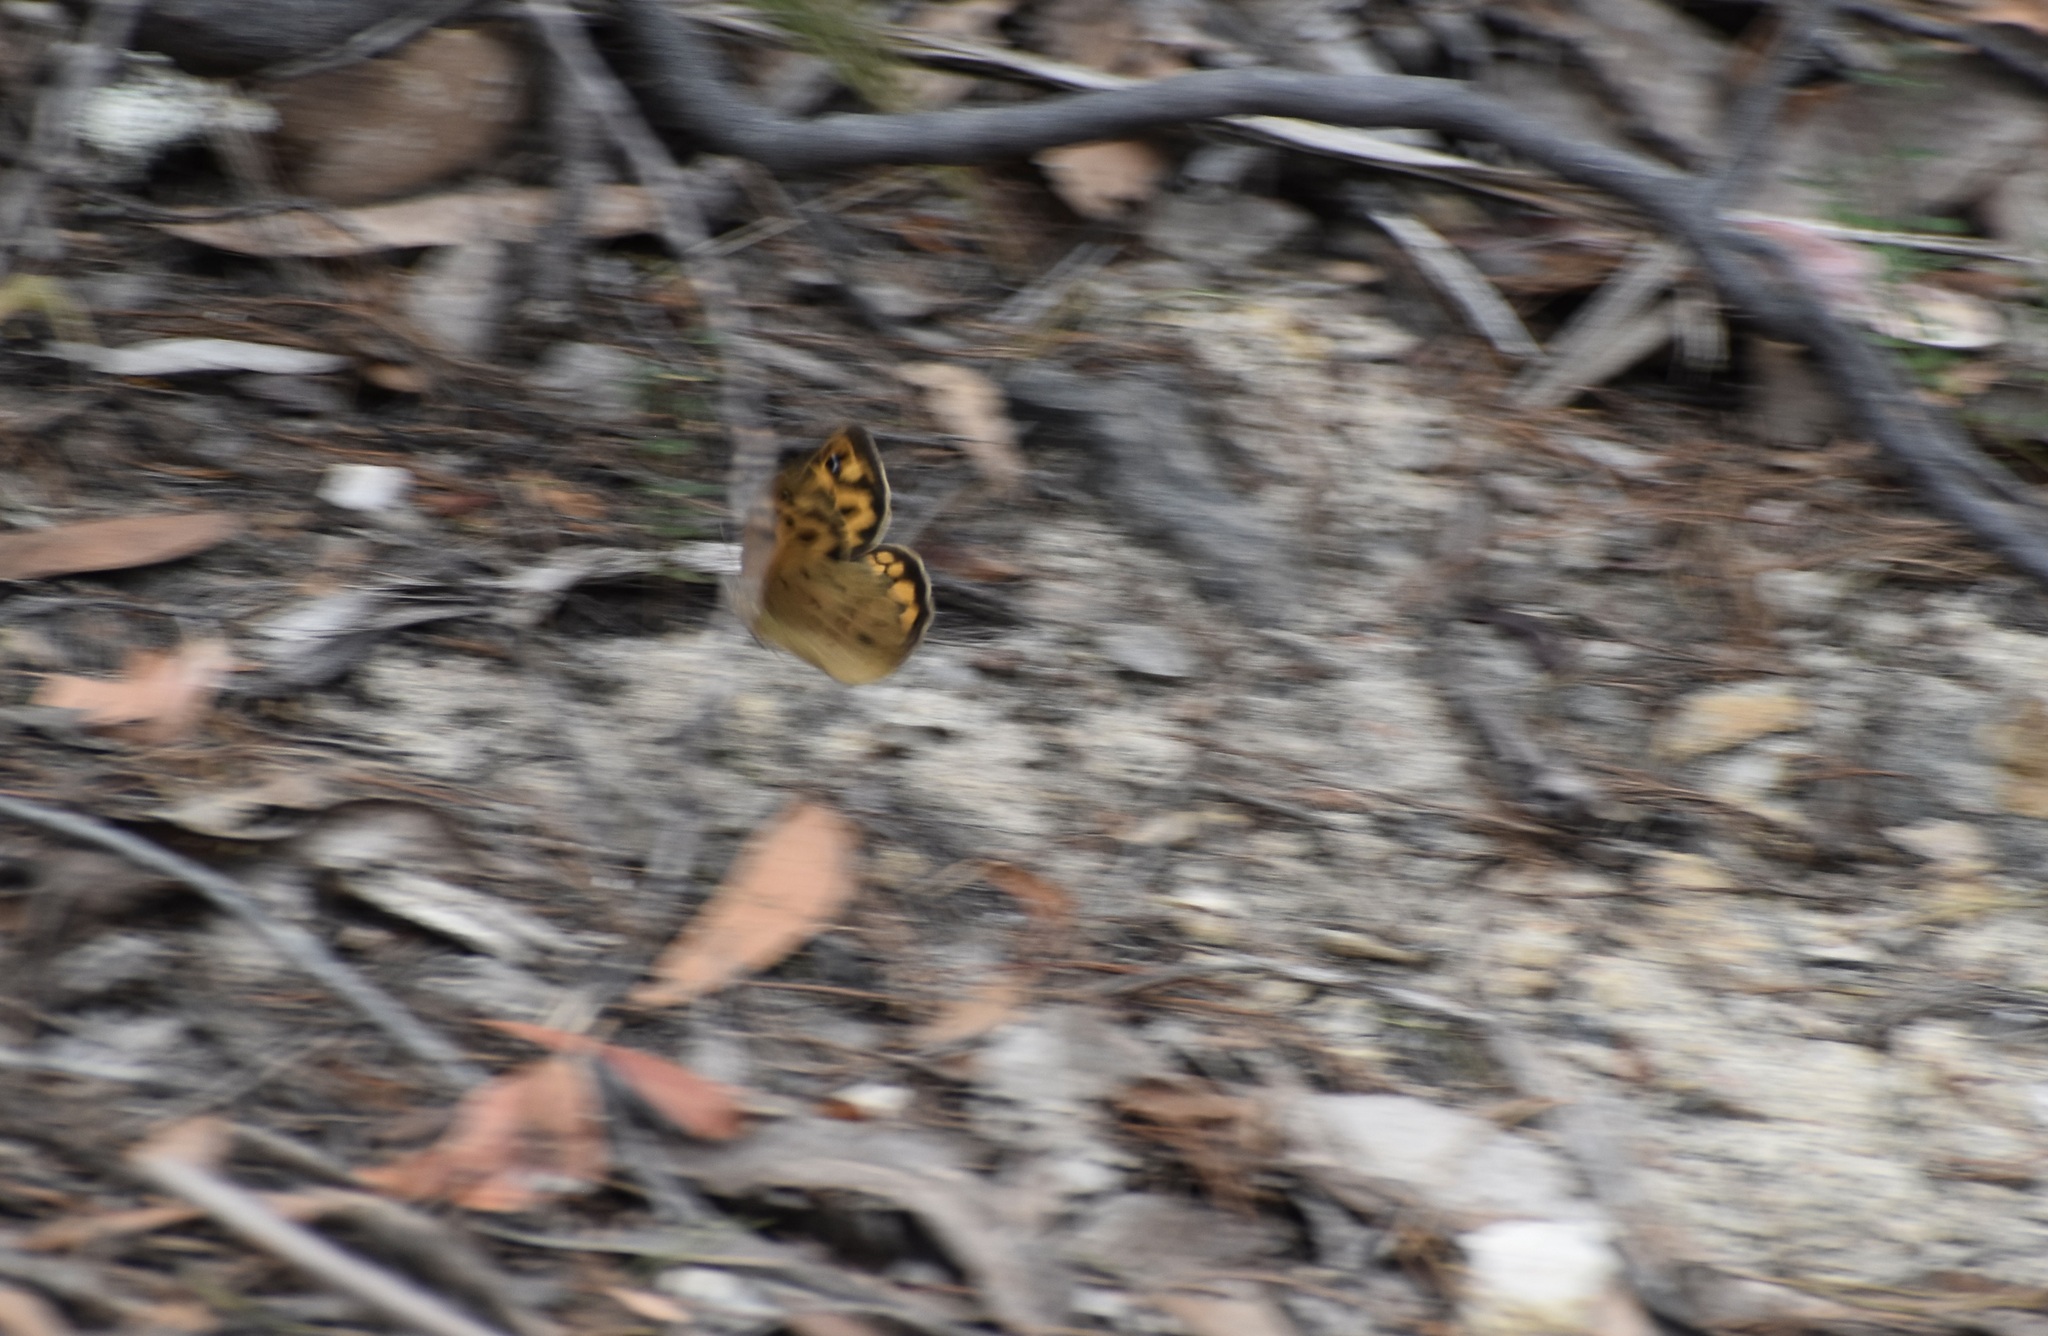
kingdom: Animalia
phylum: Arthropoda
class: Insecta
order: Lepidoptera
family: Nymphalidae
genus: Heteronympha
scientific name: Heteronympha merope
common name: Common brown
